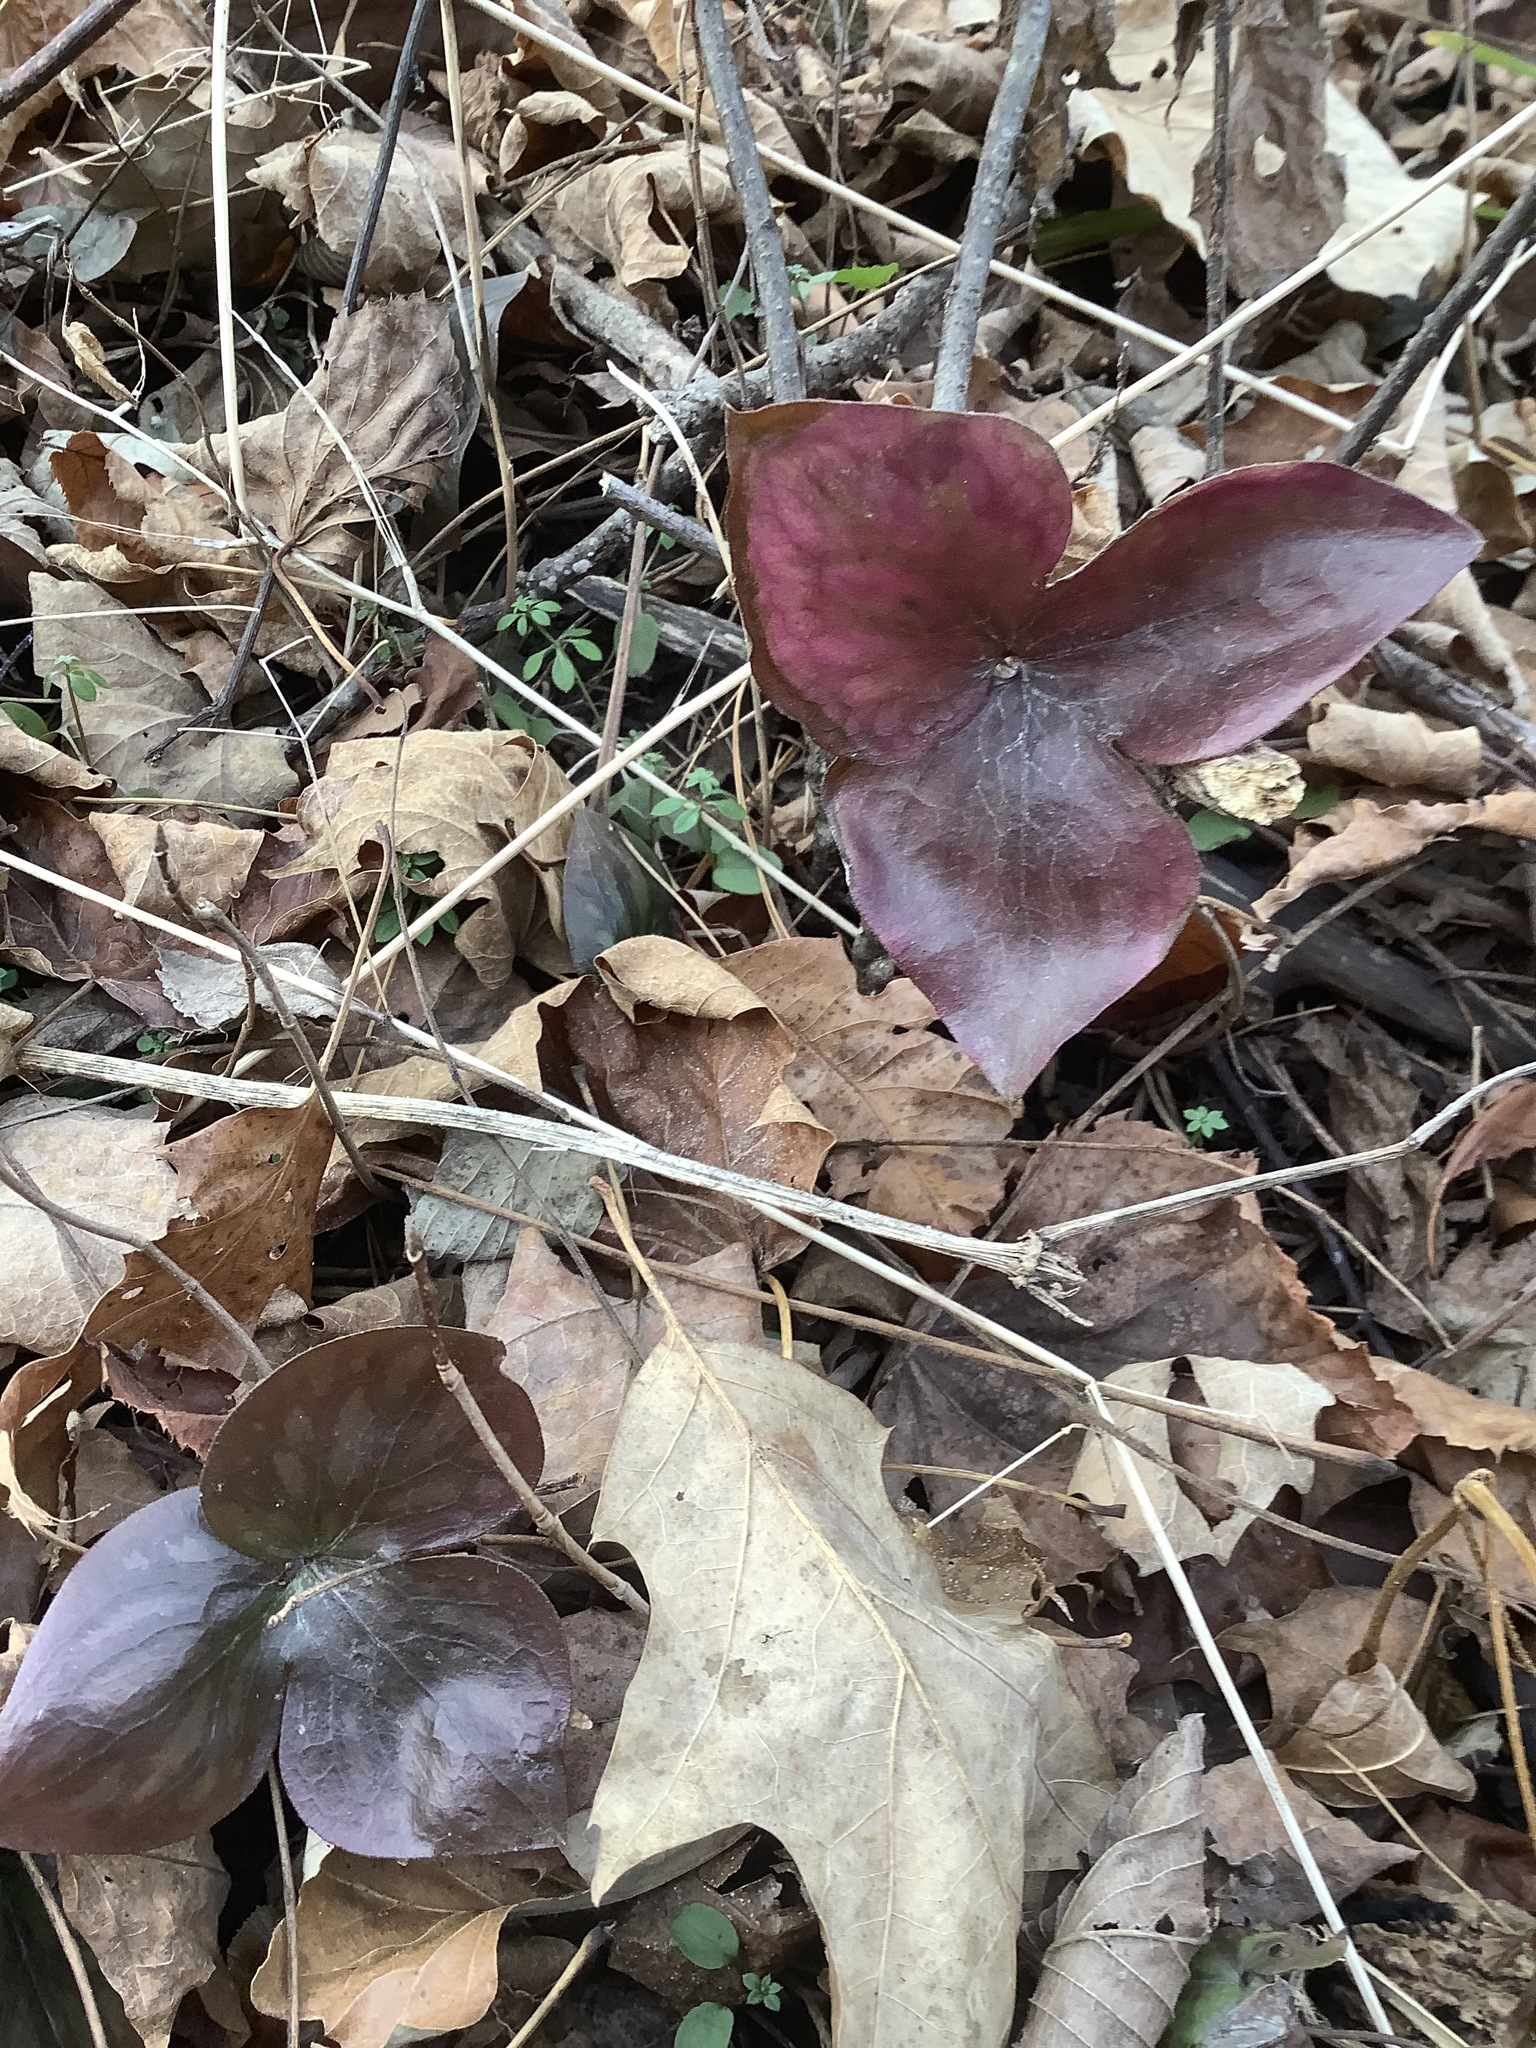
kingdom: Plantae
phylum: Tracheophyta
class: Magnoliopsida
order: Ranunculales
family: Ranunculaceae
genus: Hepatica
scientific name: Hepatica acutiloba
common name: Sharp-lobed hepatica
